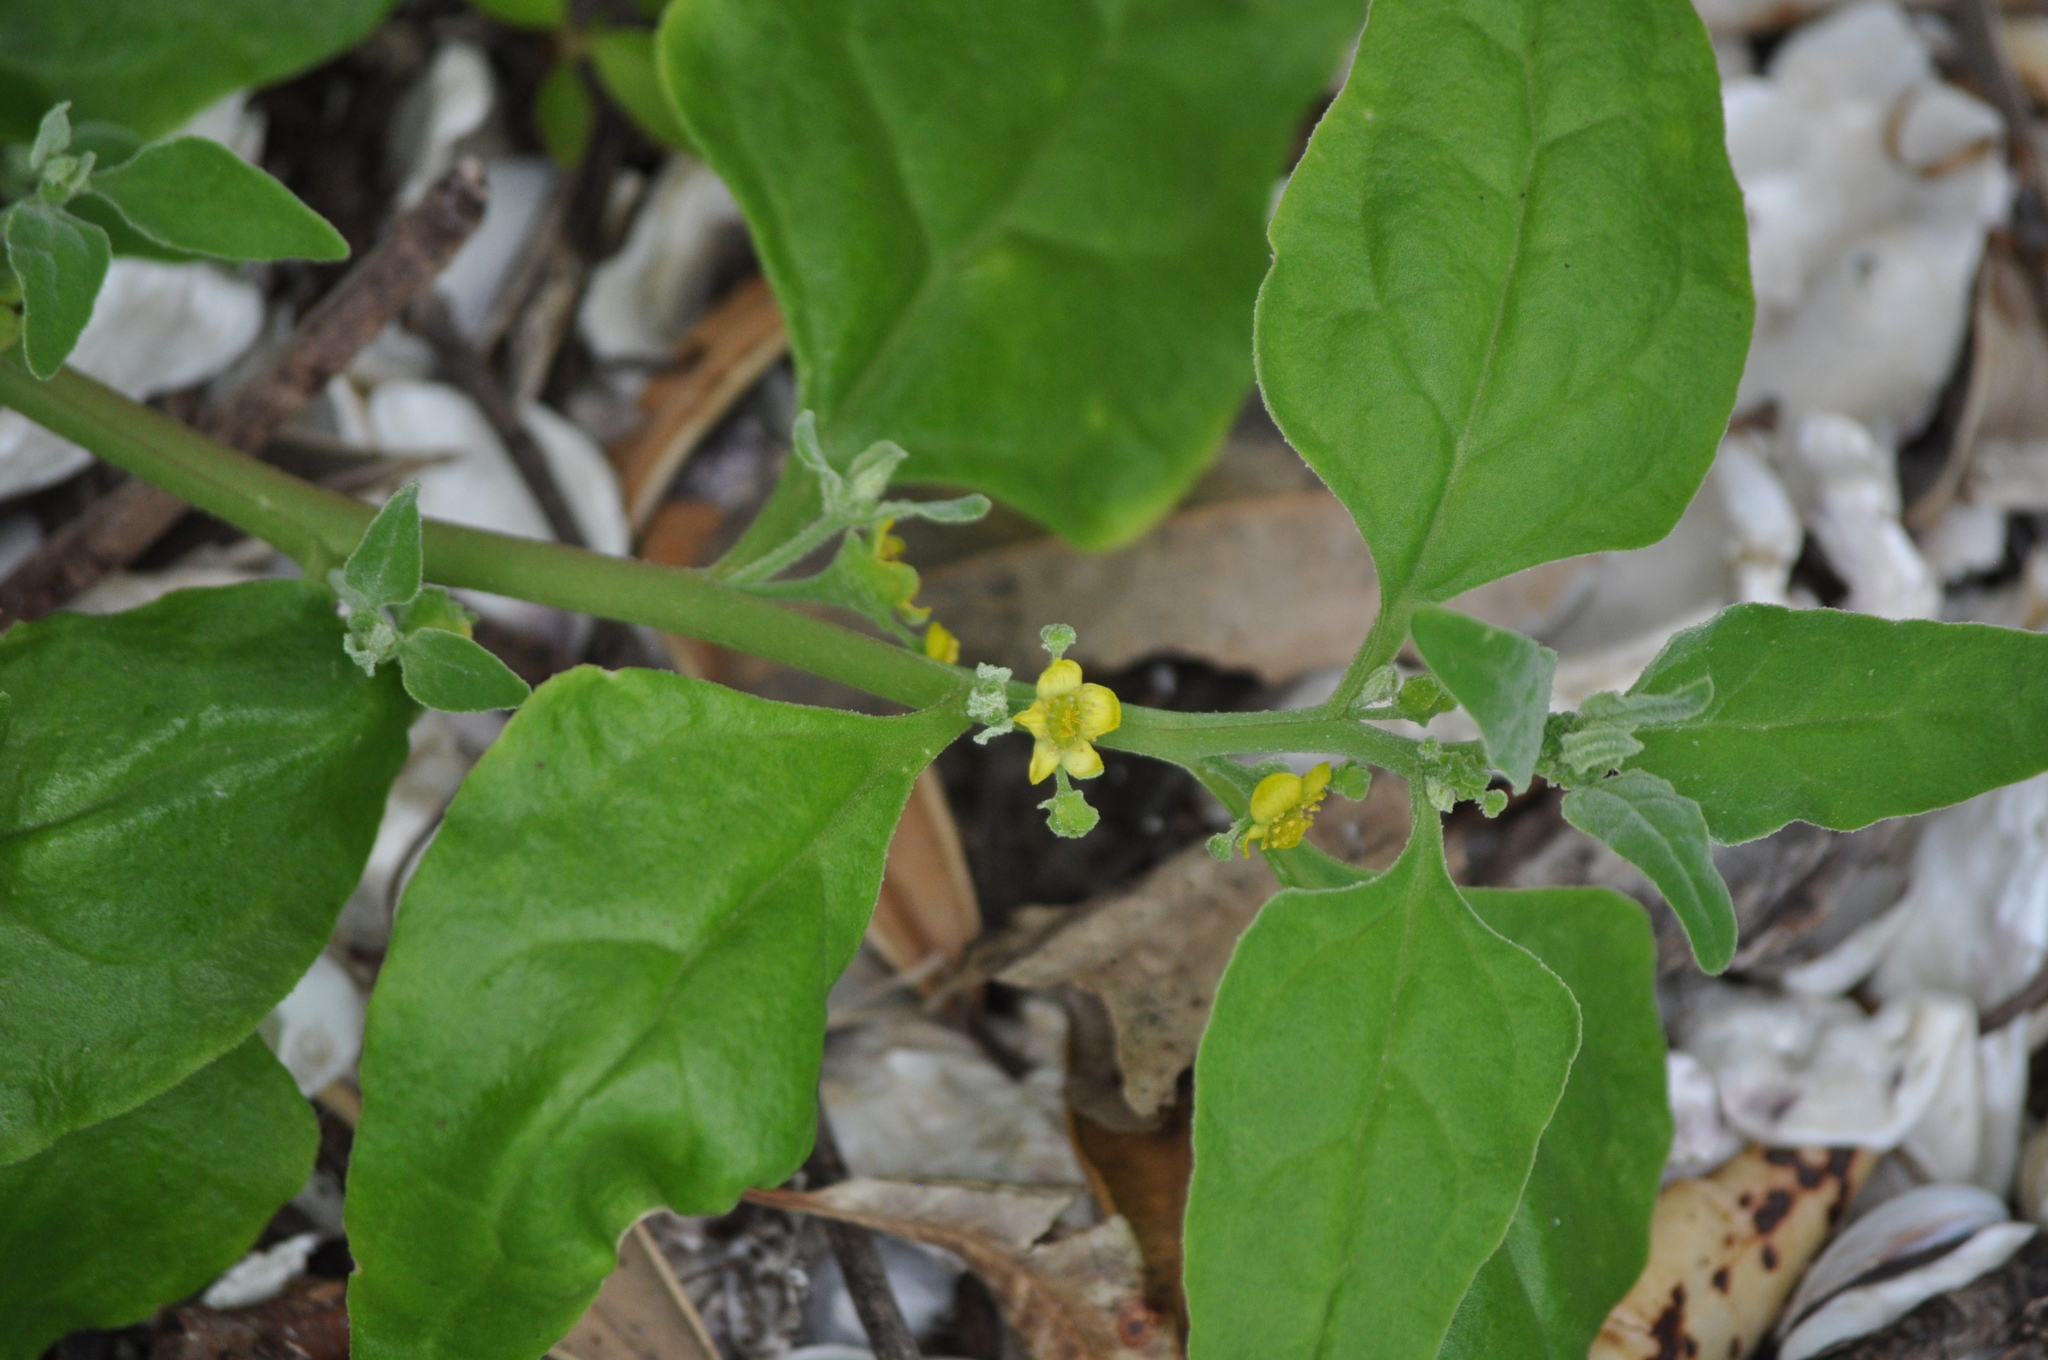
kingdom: Plantae
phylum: Tracheophyta
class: Magnoliopsida
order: Caryophyllales
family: Aizoaceae
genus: Tetragonia
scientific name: Tetragonia tetragonoides
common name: New zealand-spinach
